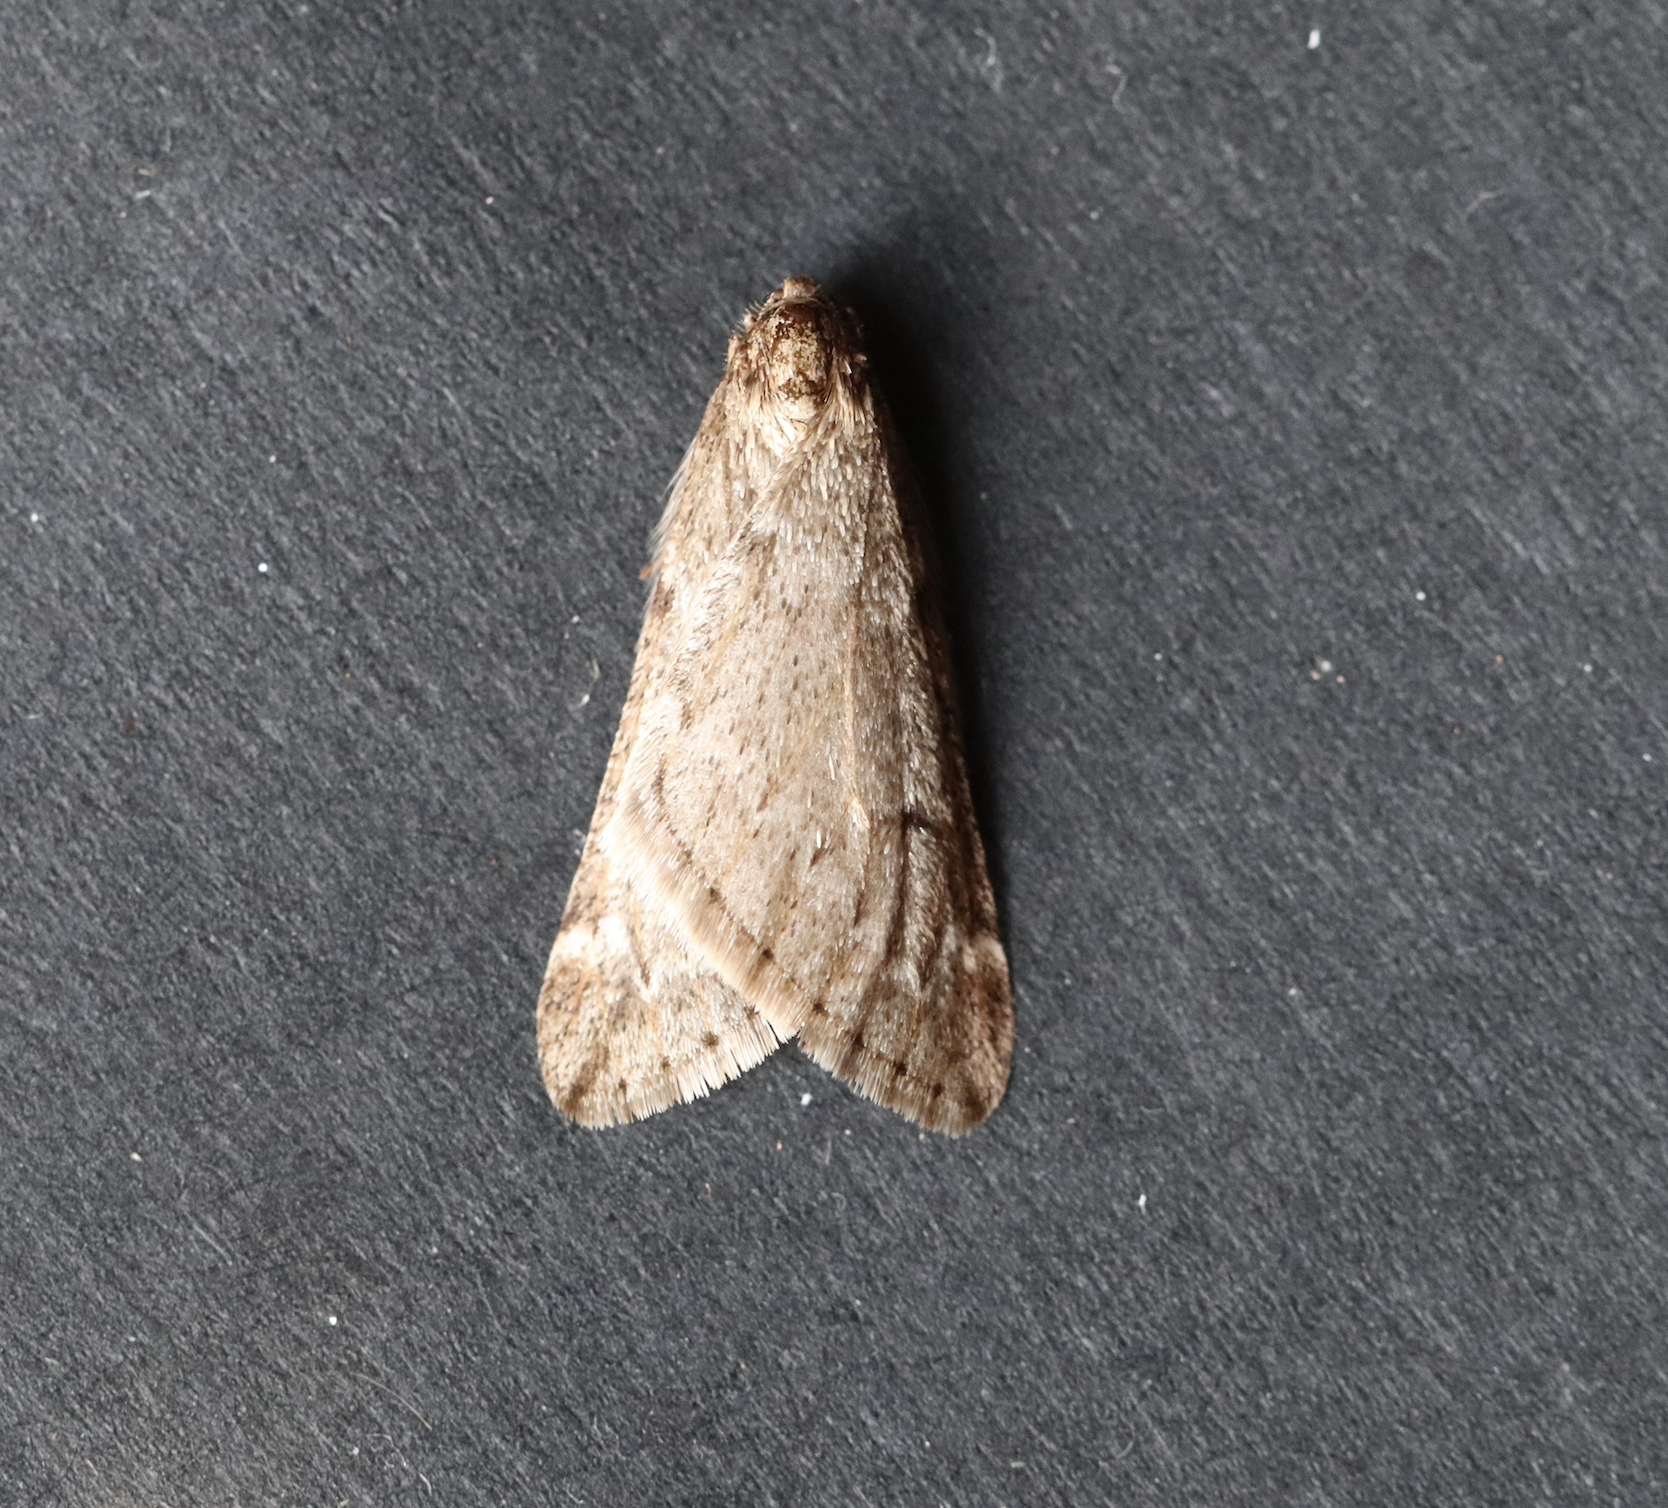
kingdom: Animalia
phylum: Arthropoda
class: Insecta
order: Lepidoptera
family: Geometridae
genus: Alsophila
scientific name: Alsophila aescularia
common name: March moth
